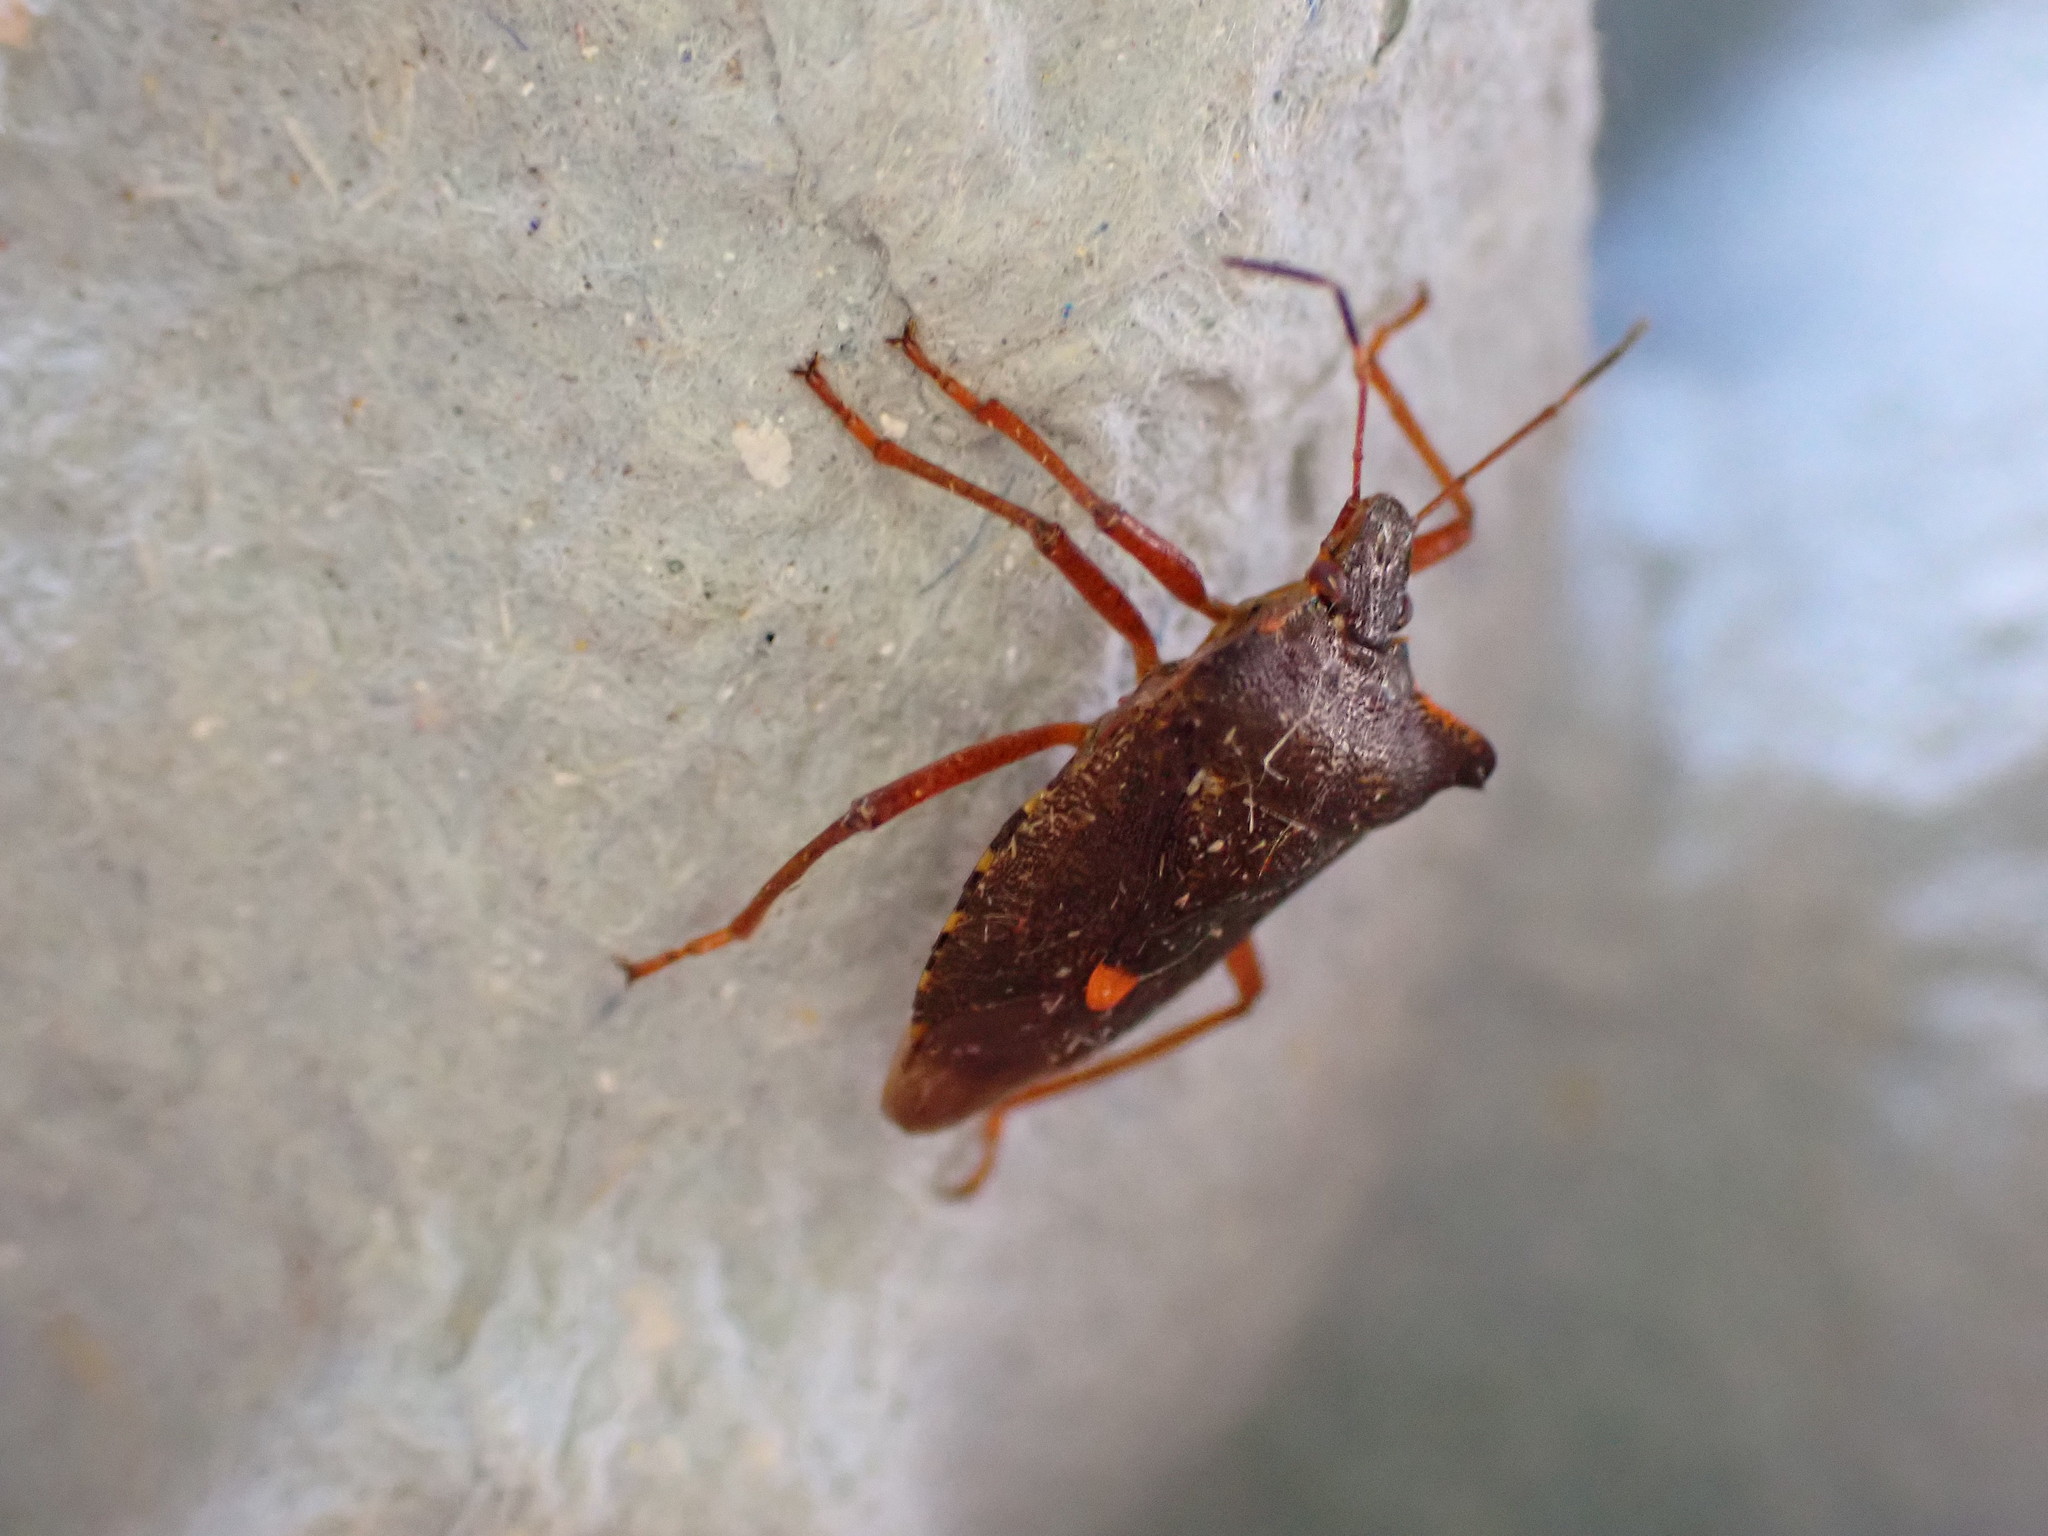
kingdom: Animalia
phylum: Arthropoda
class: Insecta
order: Hemiptera
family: Pentatomidae
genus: Pentatoma
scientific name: Pentatoma rufipes
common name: Forest bug
